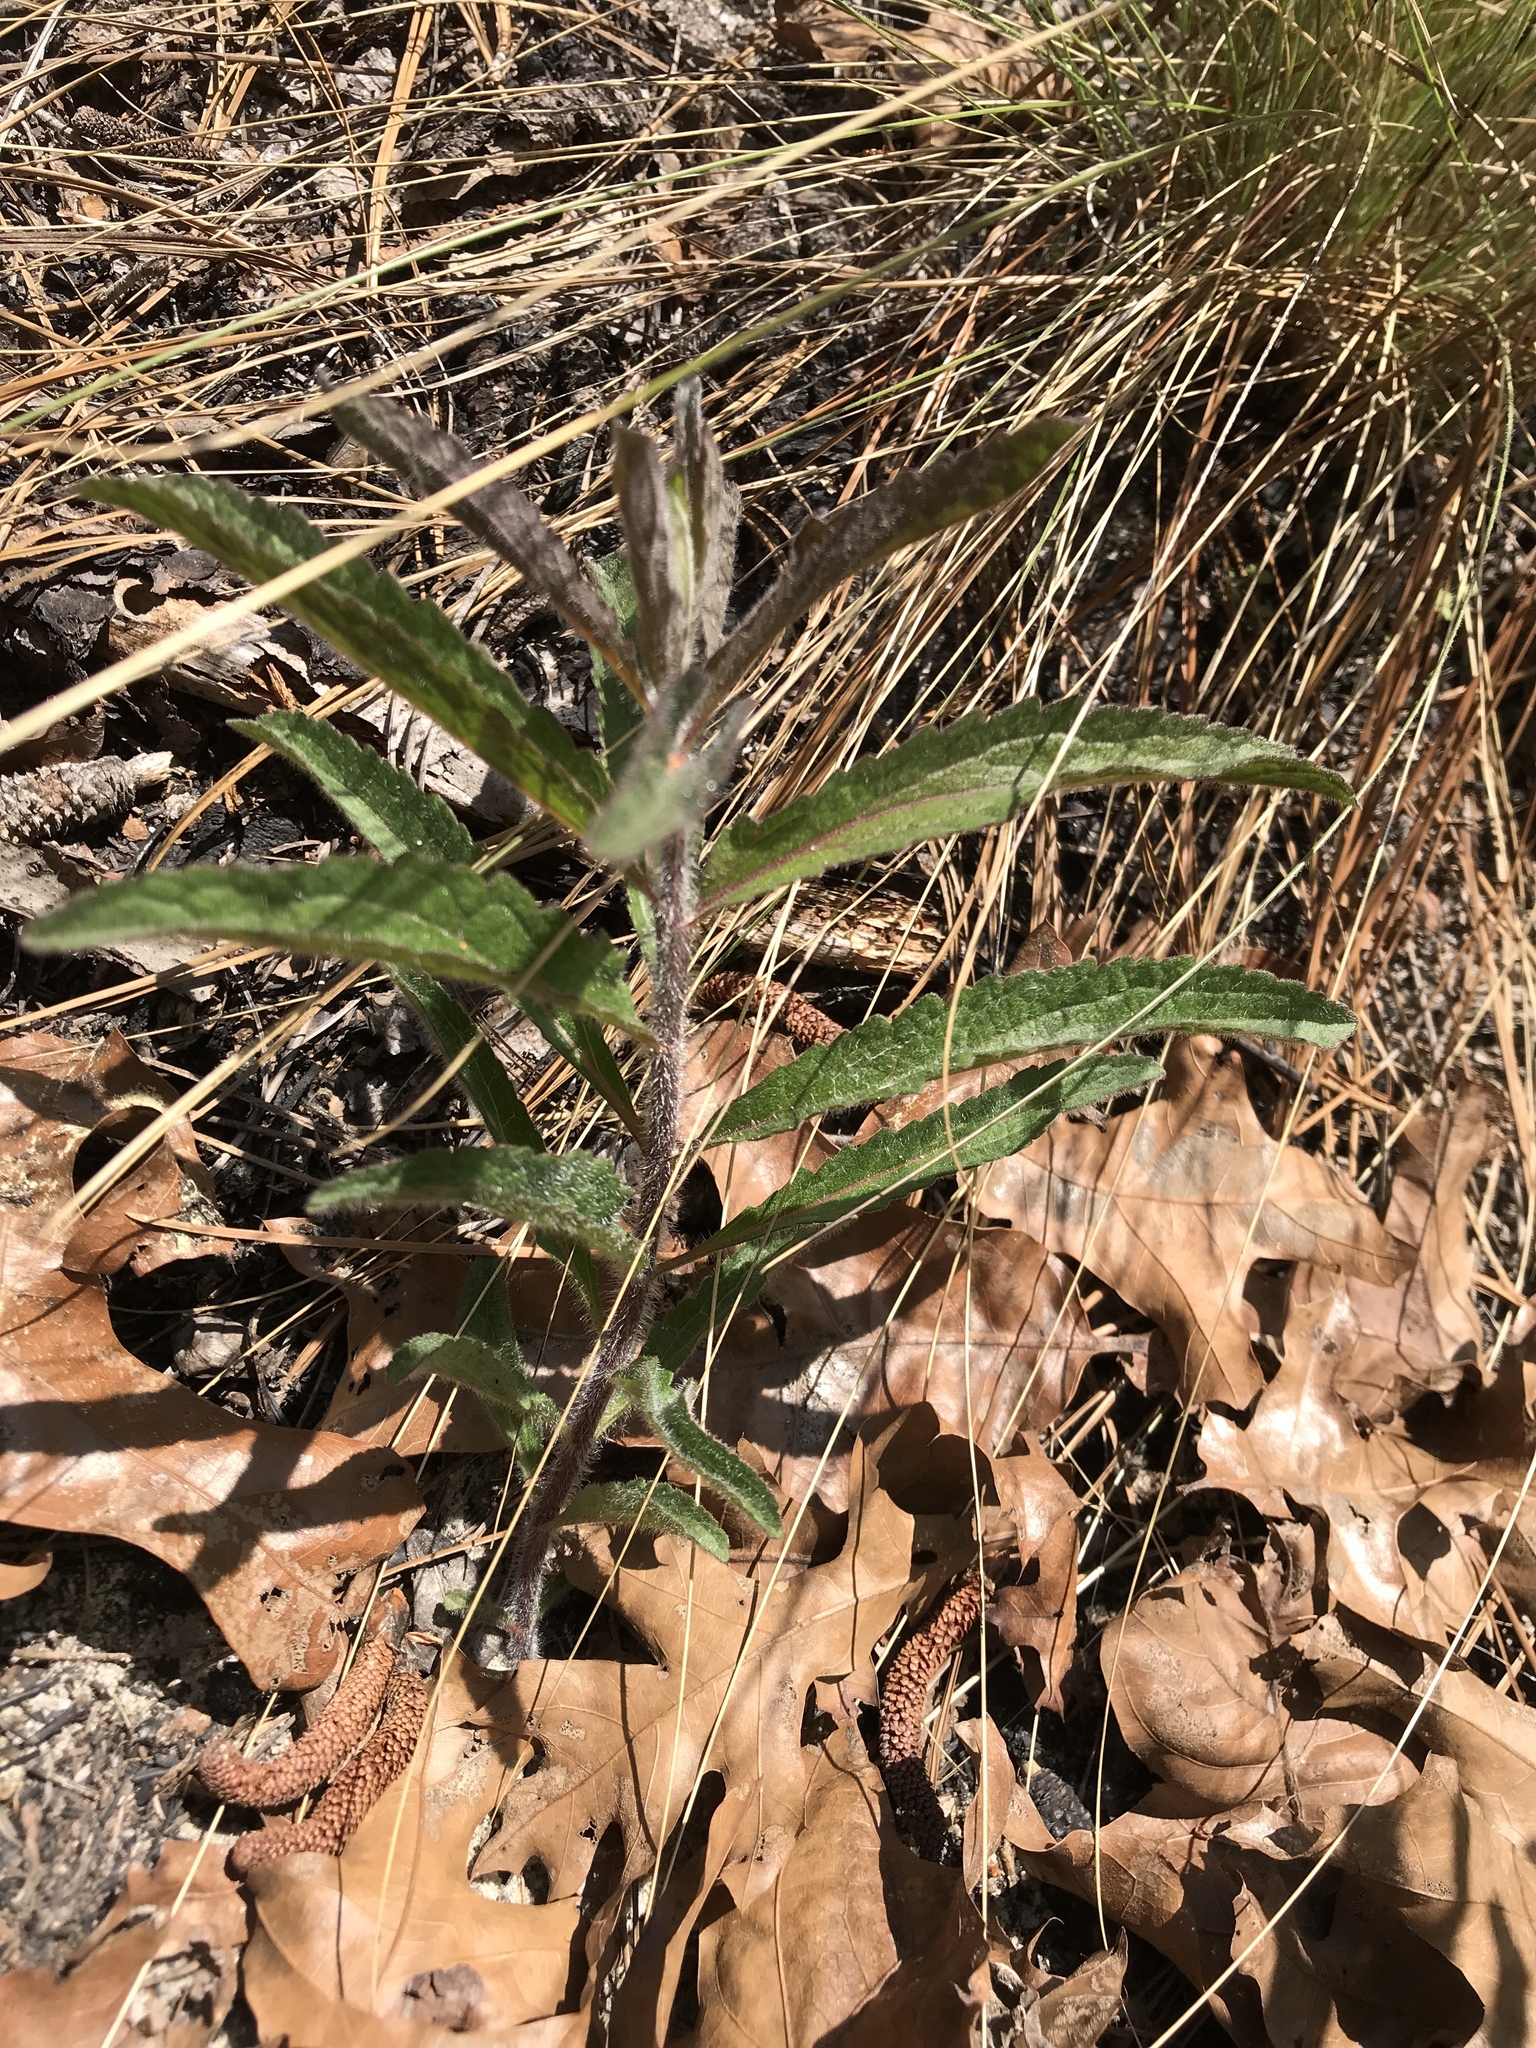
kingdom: Plantae
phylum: Tracheophyta
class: Magnoliopsida
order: Asterales
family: Asteraceae
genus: Eupatorium
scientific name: Eupatorium album
